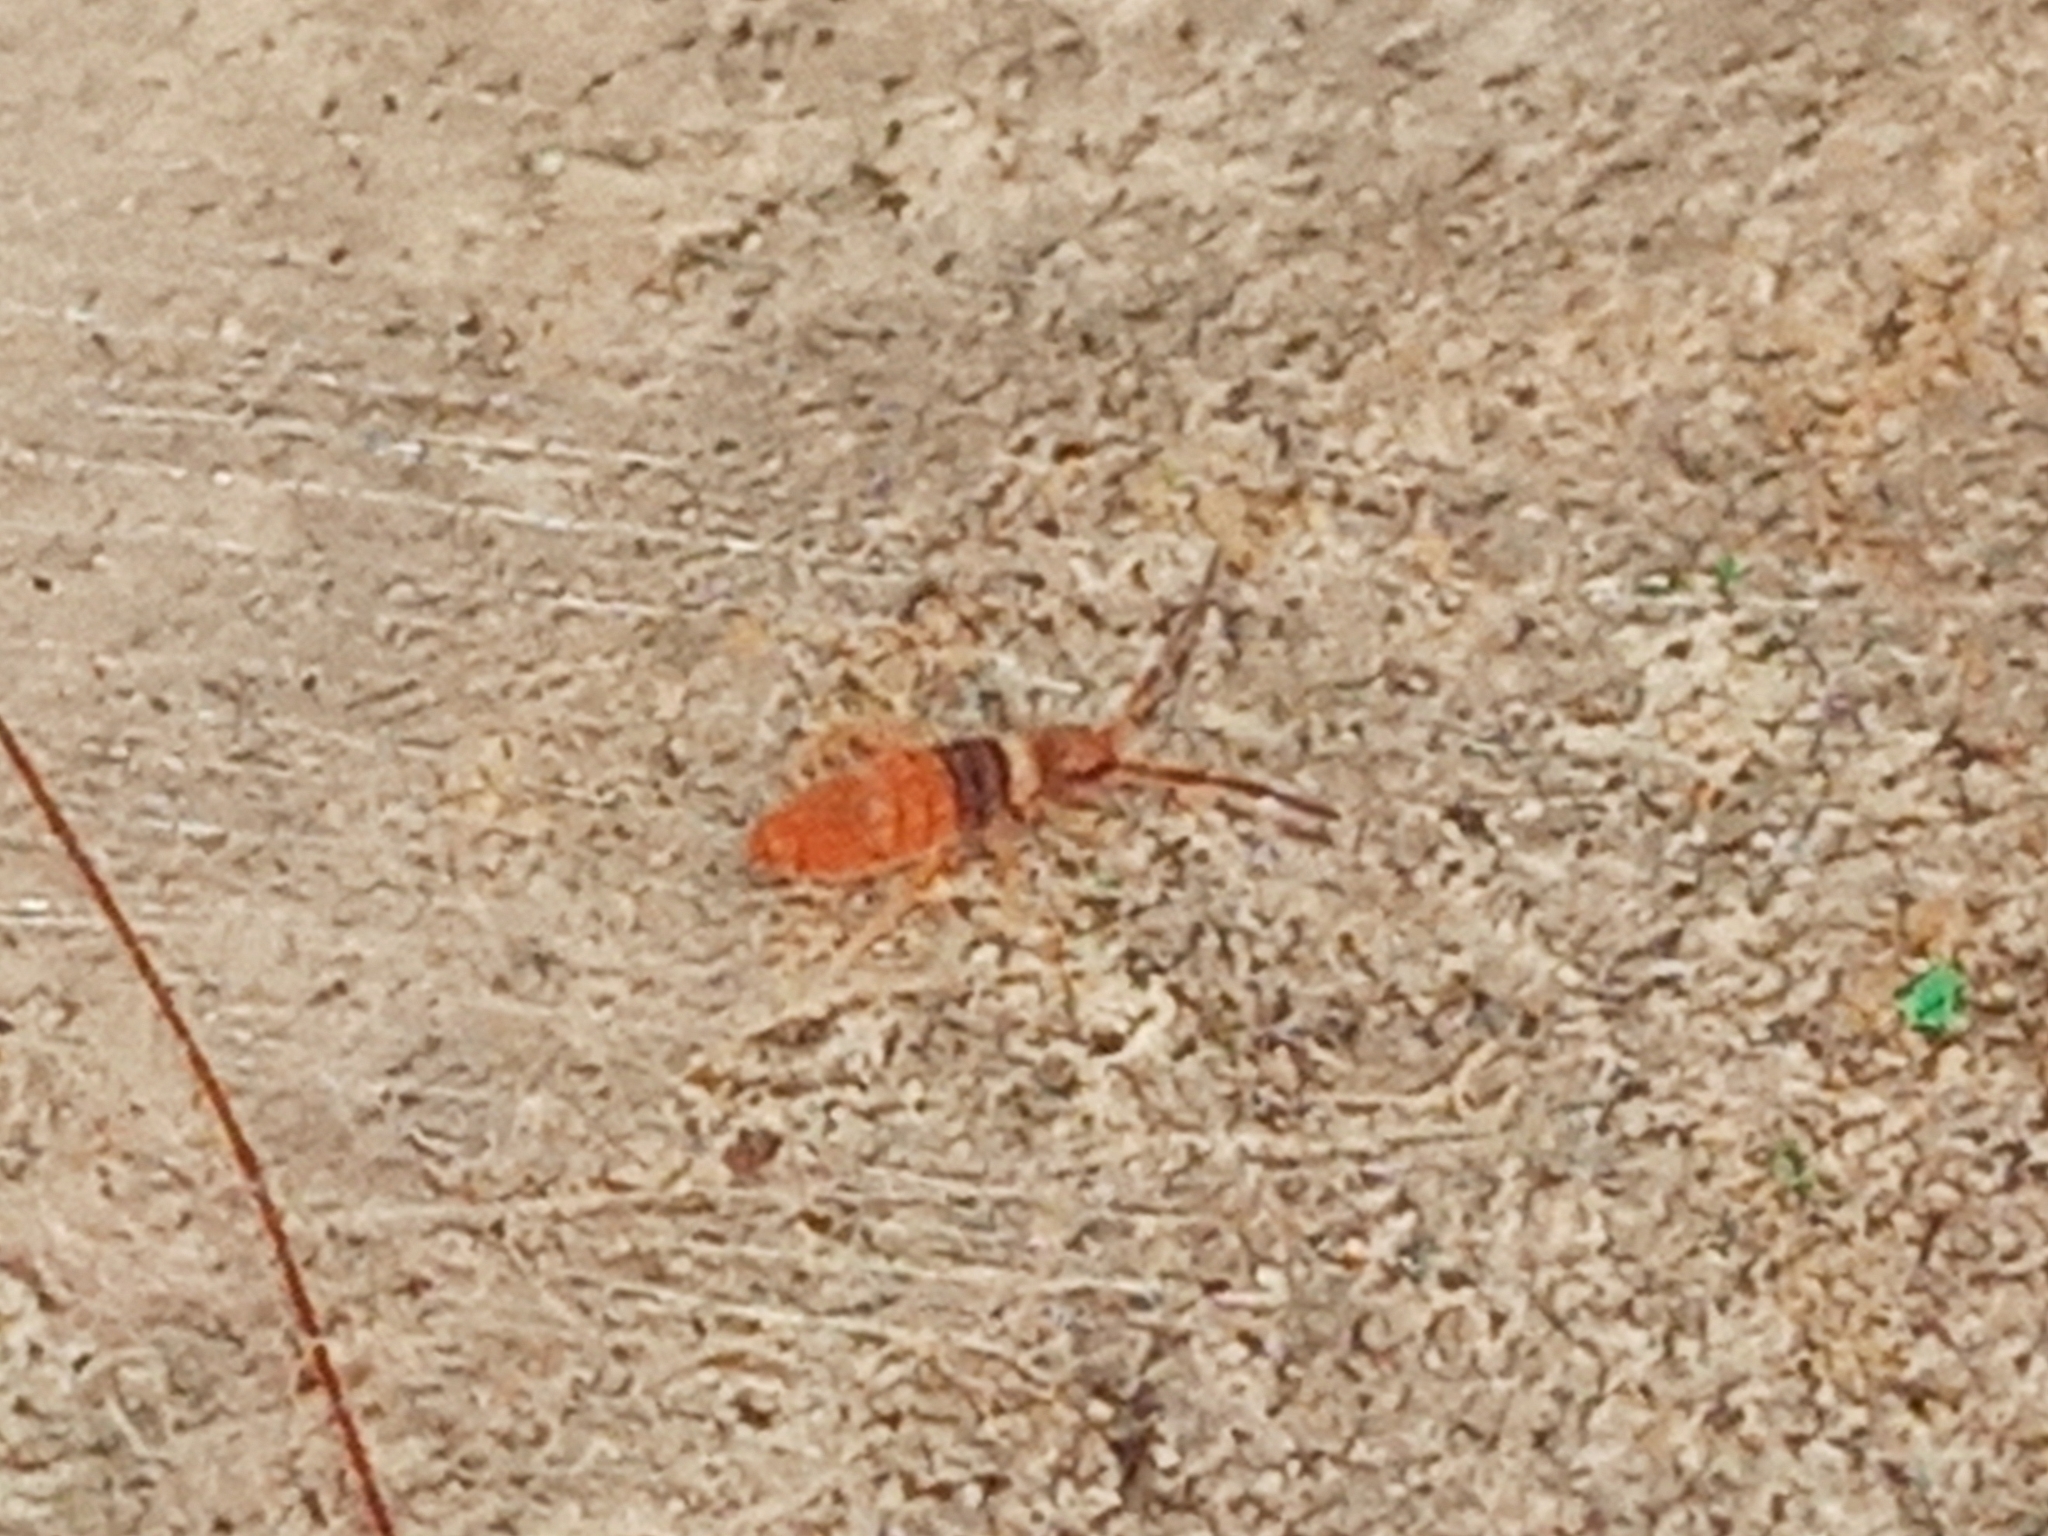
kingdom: Animalia
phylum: Arthropoda
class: Collembola
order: Entomobryomorpha
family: Entomobryidae
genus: Entomobrya
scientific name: Entomobrya nigrocincta
